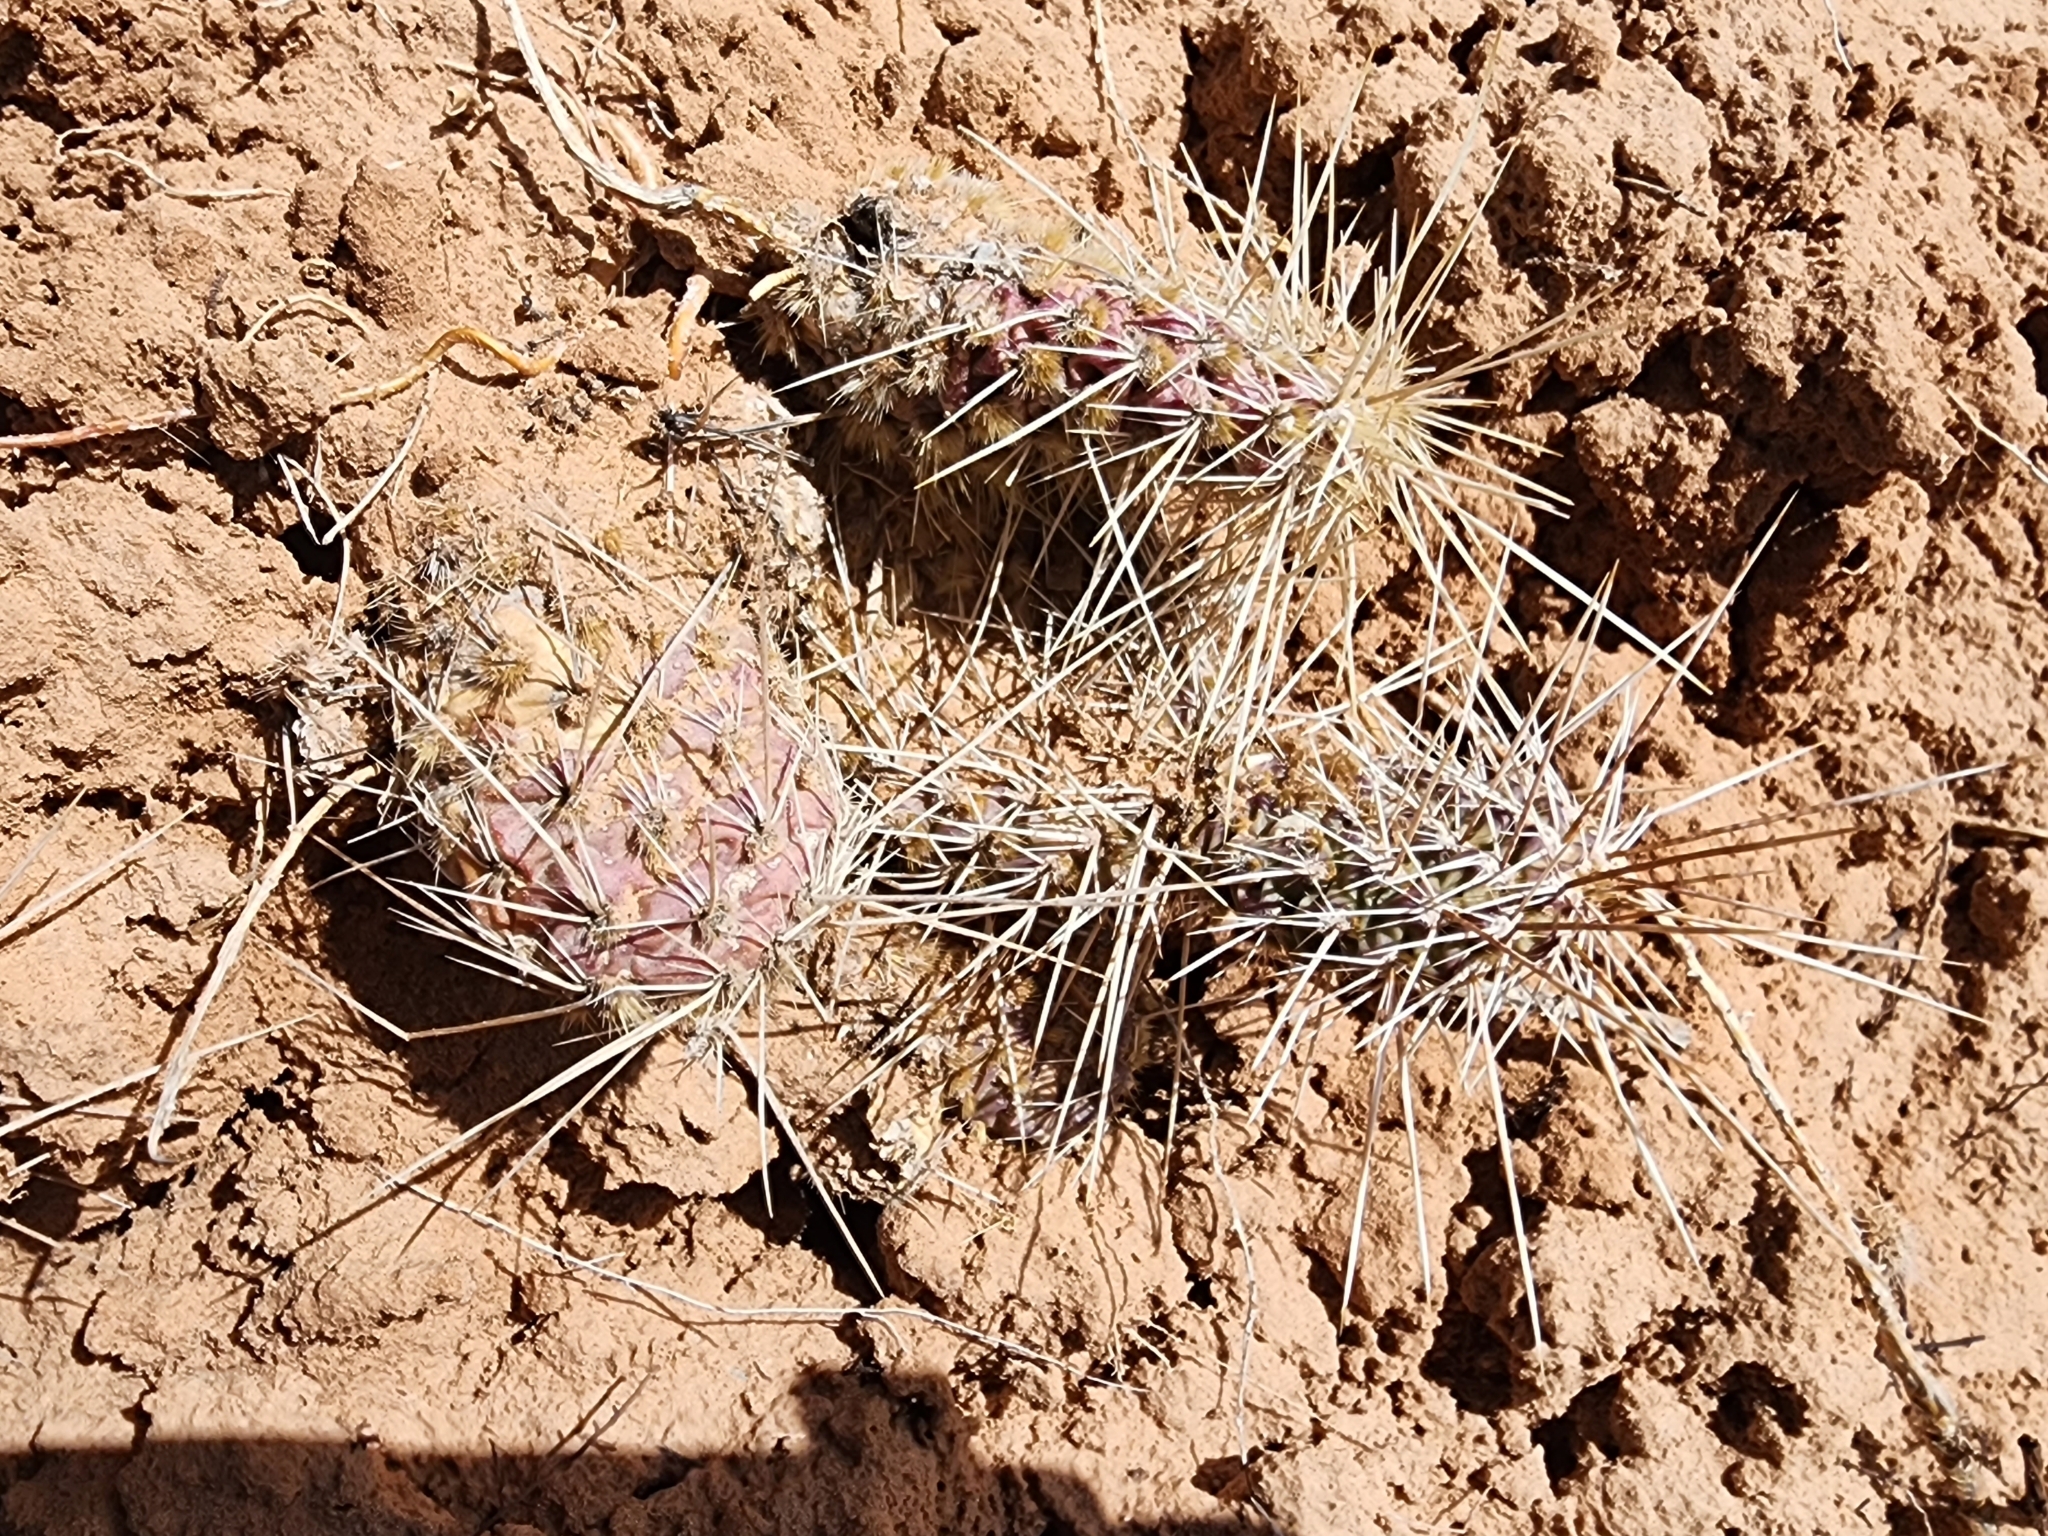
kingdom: Plantae
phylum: Tracheophyta
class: Magnoliopsida
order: Caryophyllales
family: Cactaceae
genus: Opuntia
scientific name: Opuntia polyacantha
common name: Plains prickly-pear
